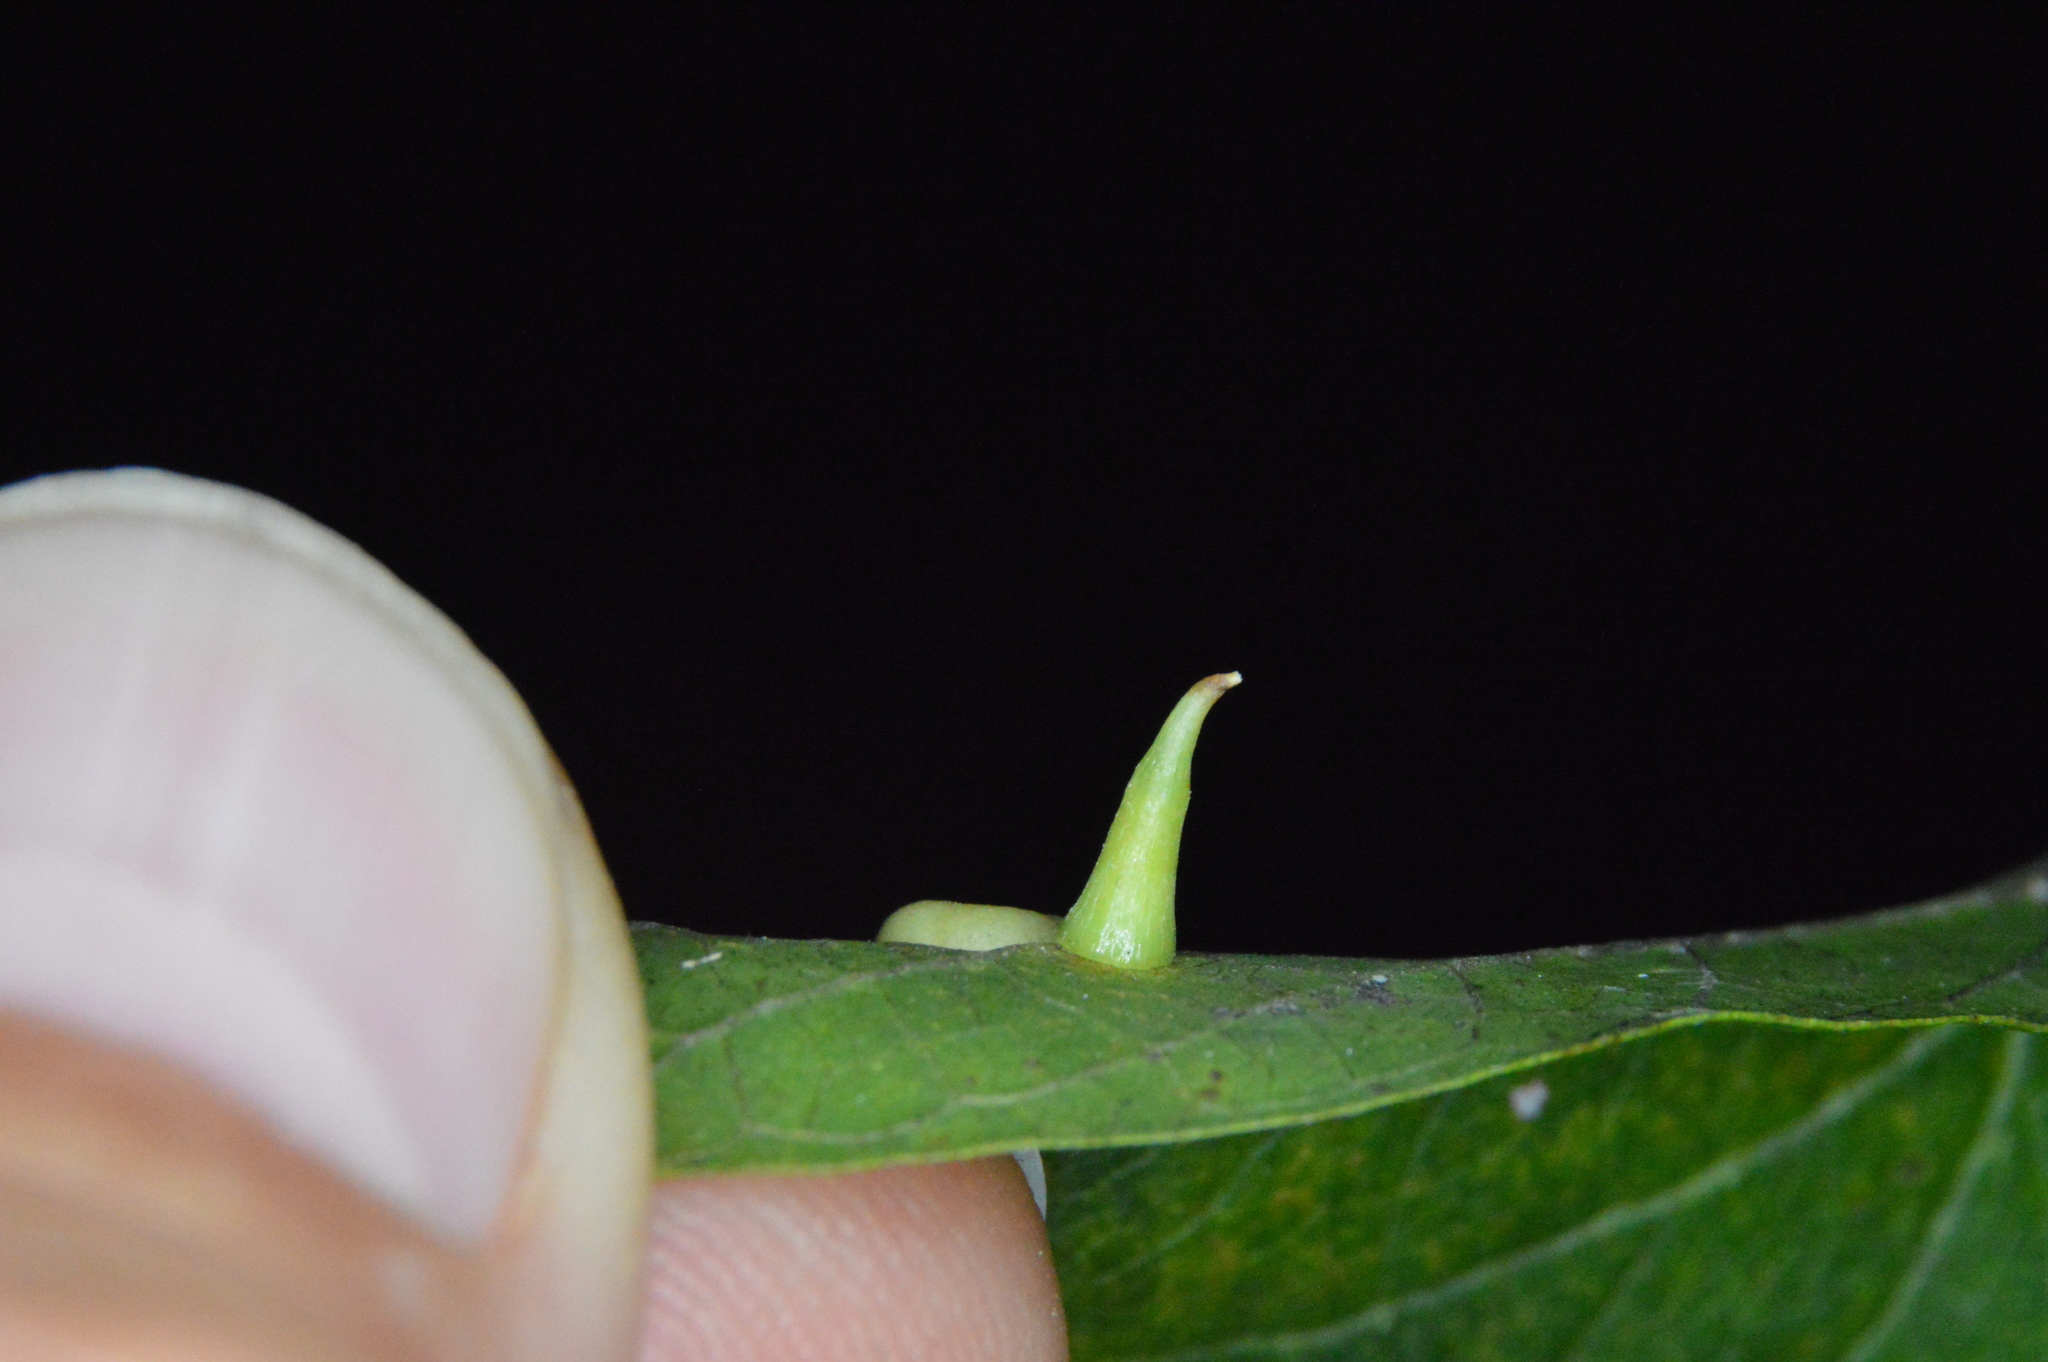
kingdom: Animalia
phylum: Arthropoda
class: Insecta
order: Diptera
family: Cecidomyiidae
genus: Celticecis
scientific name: Celticecis subulata
